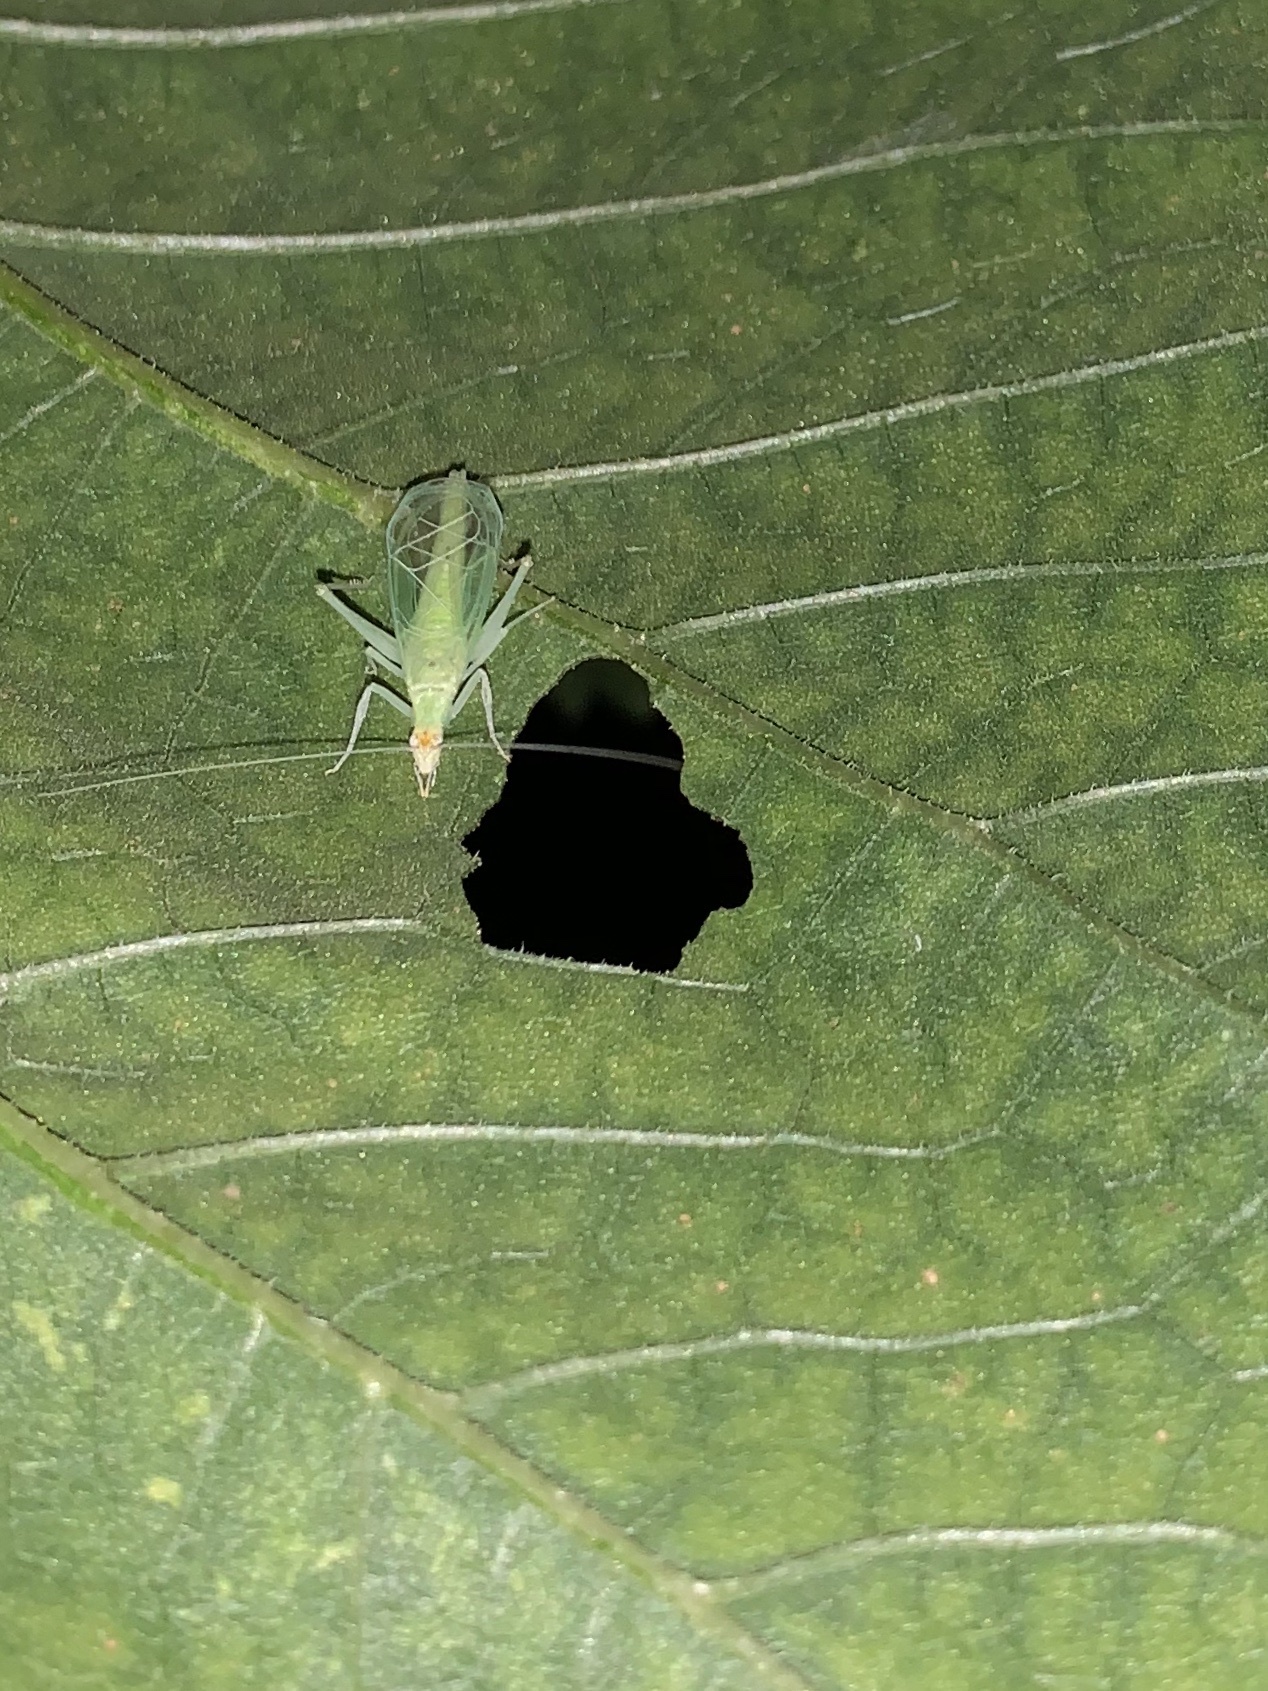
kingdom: Animalia
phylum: Arthropoda
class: Insecta
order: Orthoptera
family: Gryllidae
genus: Oecanthus
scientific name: Oecanthus
